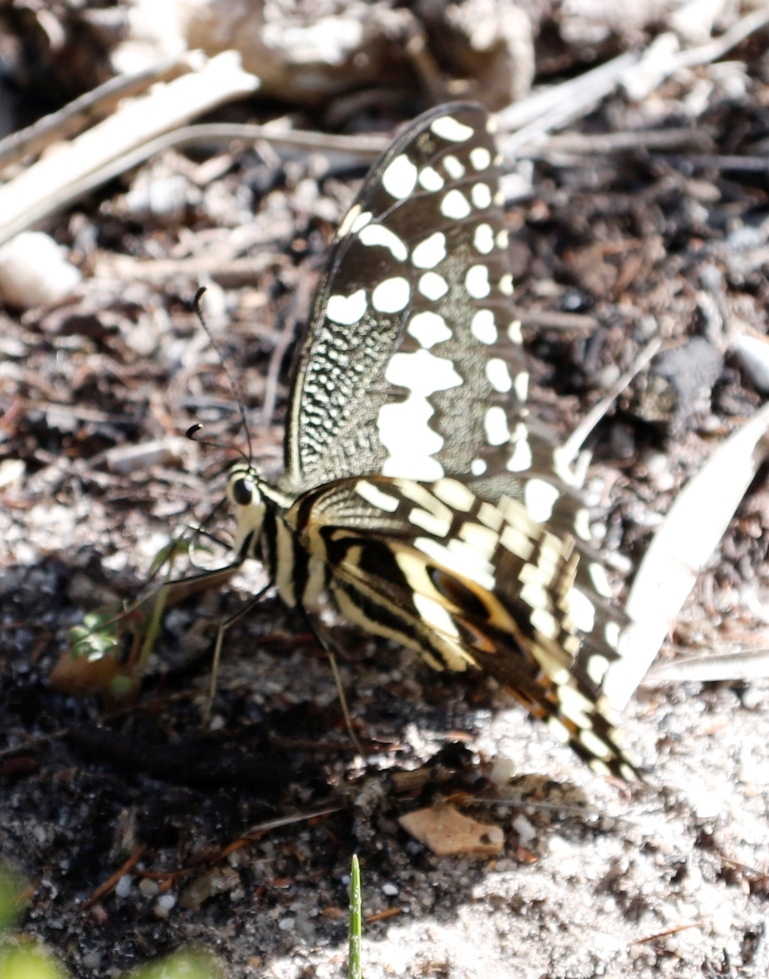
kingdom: Animalia
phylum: Arthropoda
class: Insecta
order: Lepidoptera
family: Papilionidae
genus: Papilio
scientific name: Papilio demodocus
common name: Christmas butterfly
